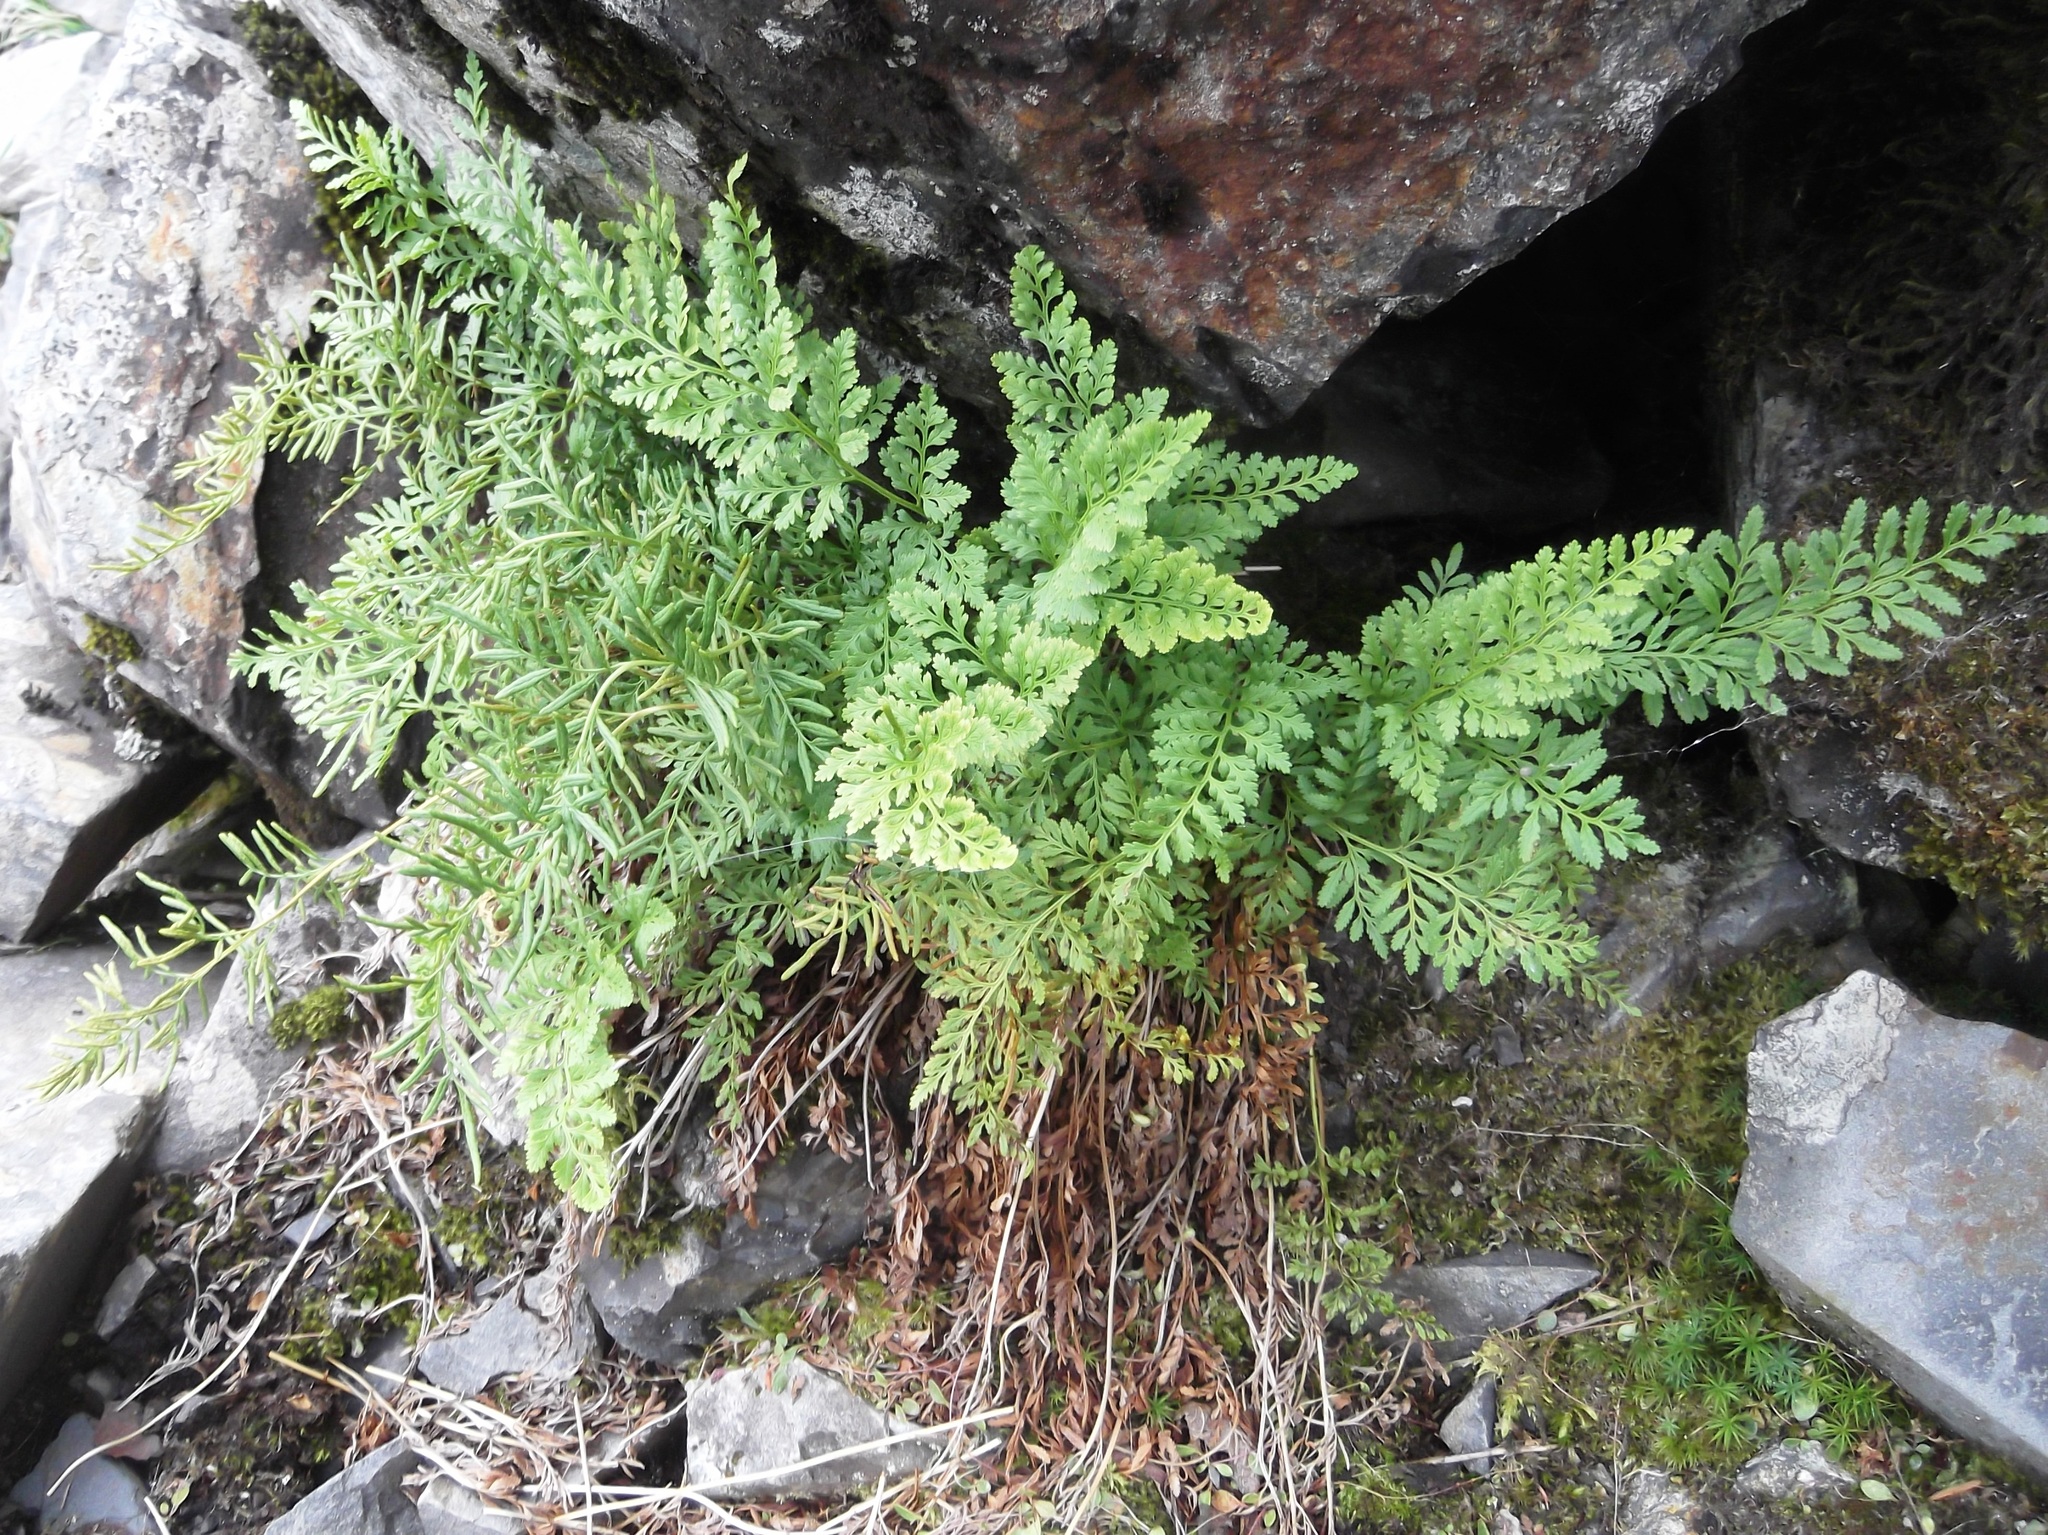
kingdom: Plantae
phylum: Tracheophyta
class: Polypodiopsida
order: Polypodiales
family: Pteridaceae
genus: Cryptogramma
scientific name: Cryptogramma acrostichoides
